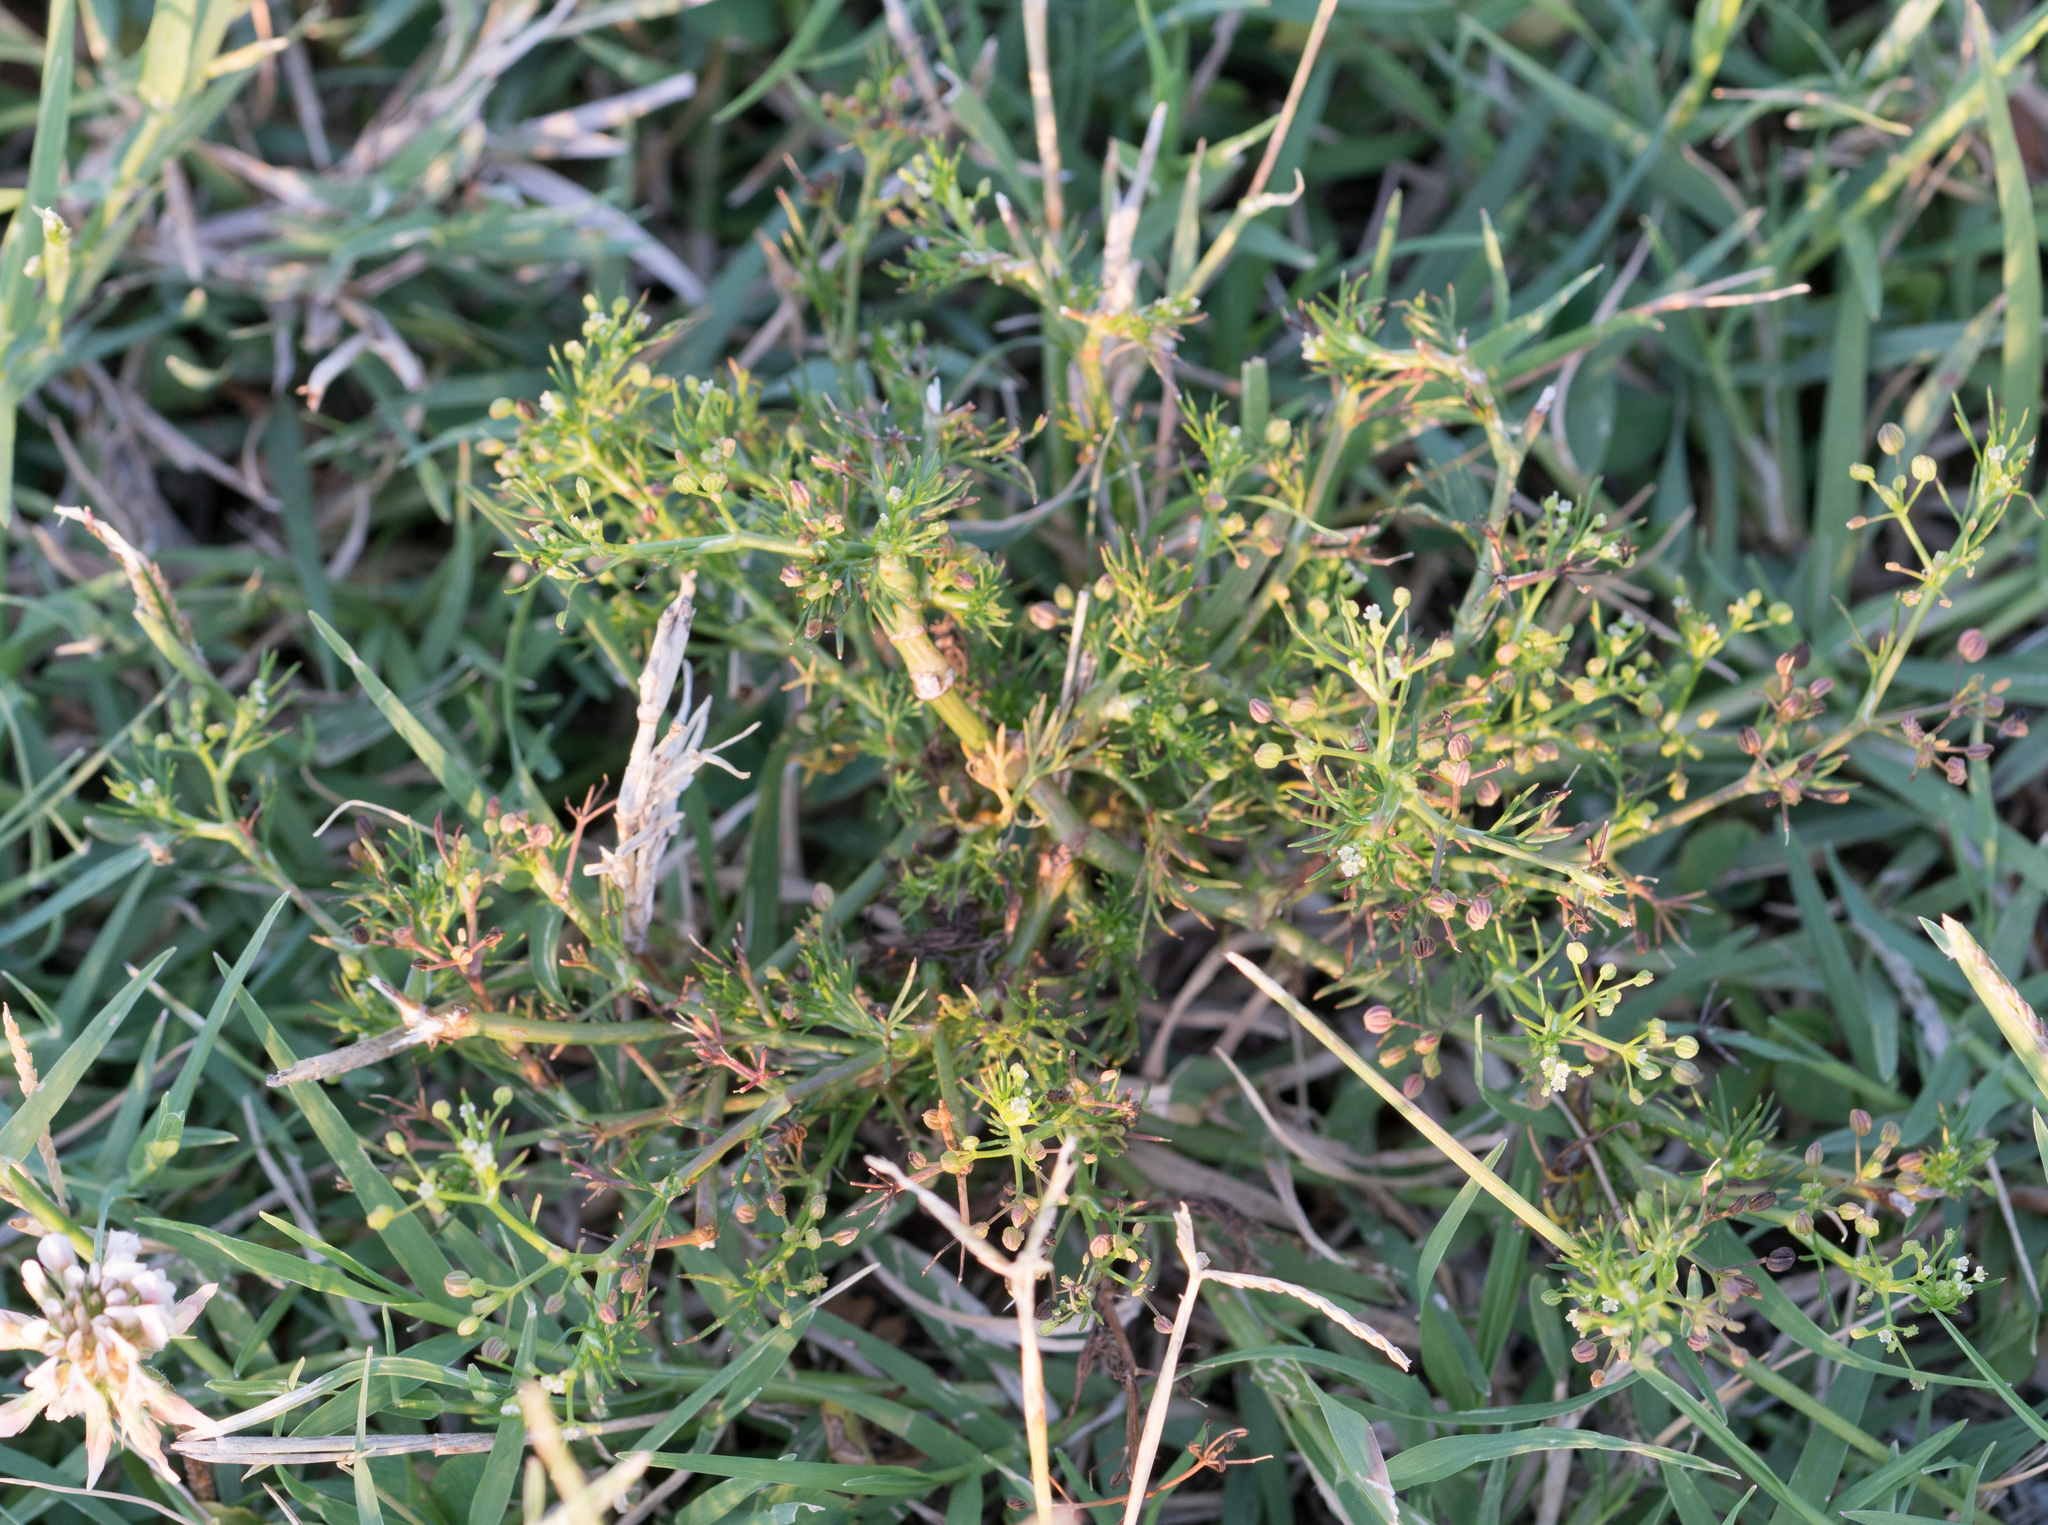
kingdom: Plantae
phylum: Tracheophyta
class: Magnoliopsida
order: Apiales
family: Apiaceae
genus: Cyclospermum
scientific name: Cyclospermum leptophyllum
